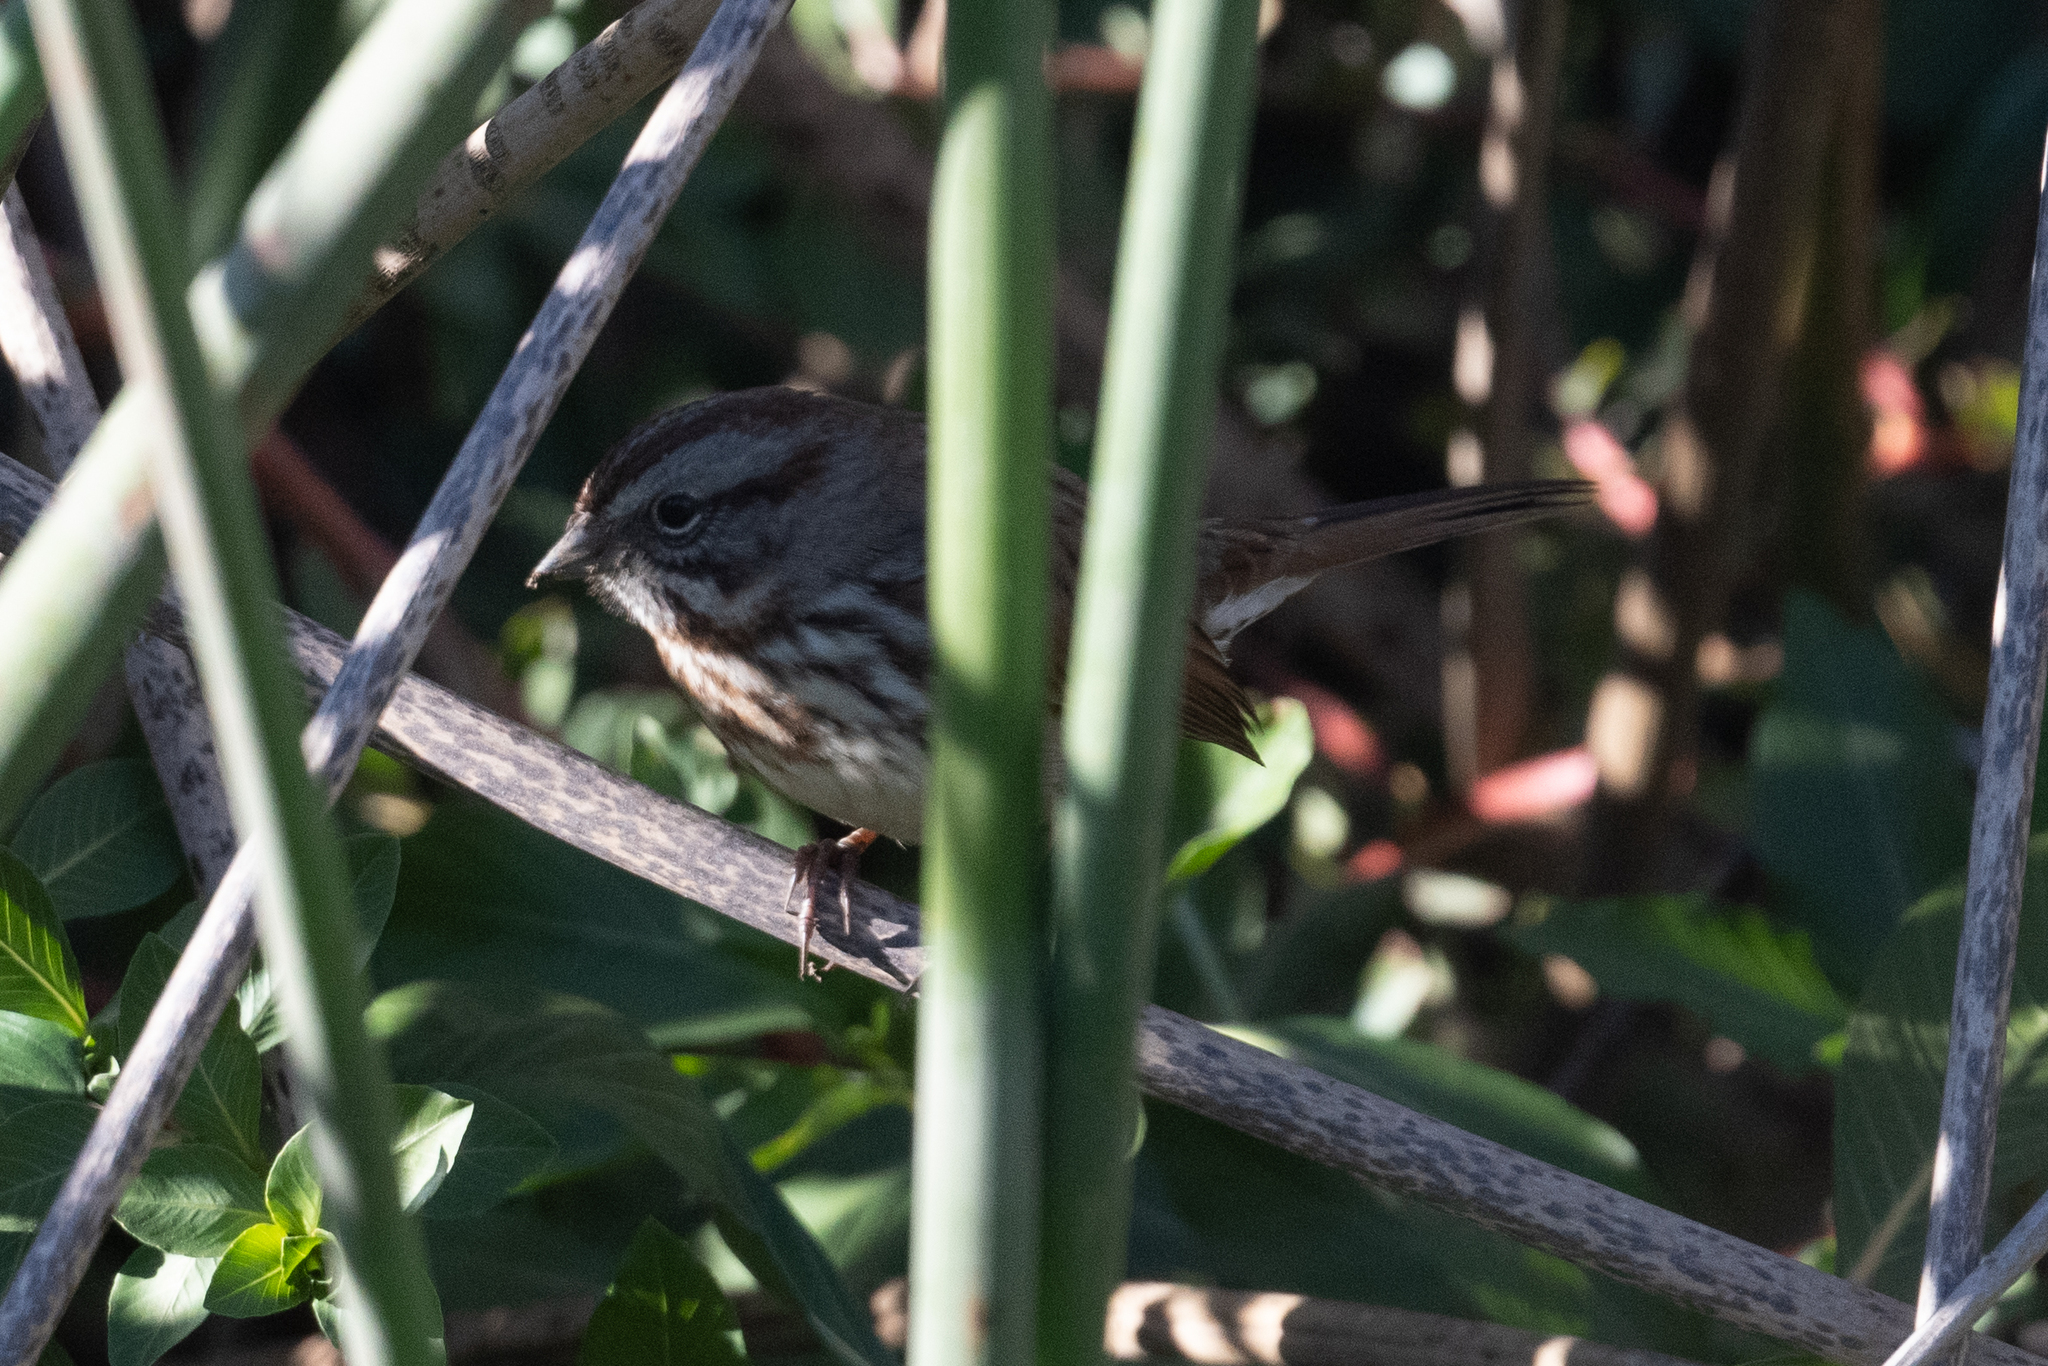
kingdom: Animalia
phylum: Chordata
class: Aves
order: Passeriformes
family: Passerellidae
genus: Melospiza
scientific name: Melospiza melodia
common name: Song sparrow
